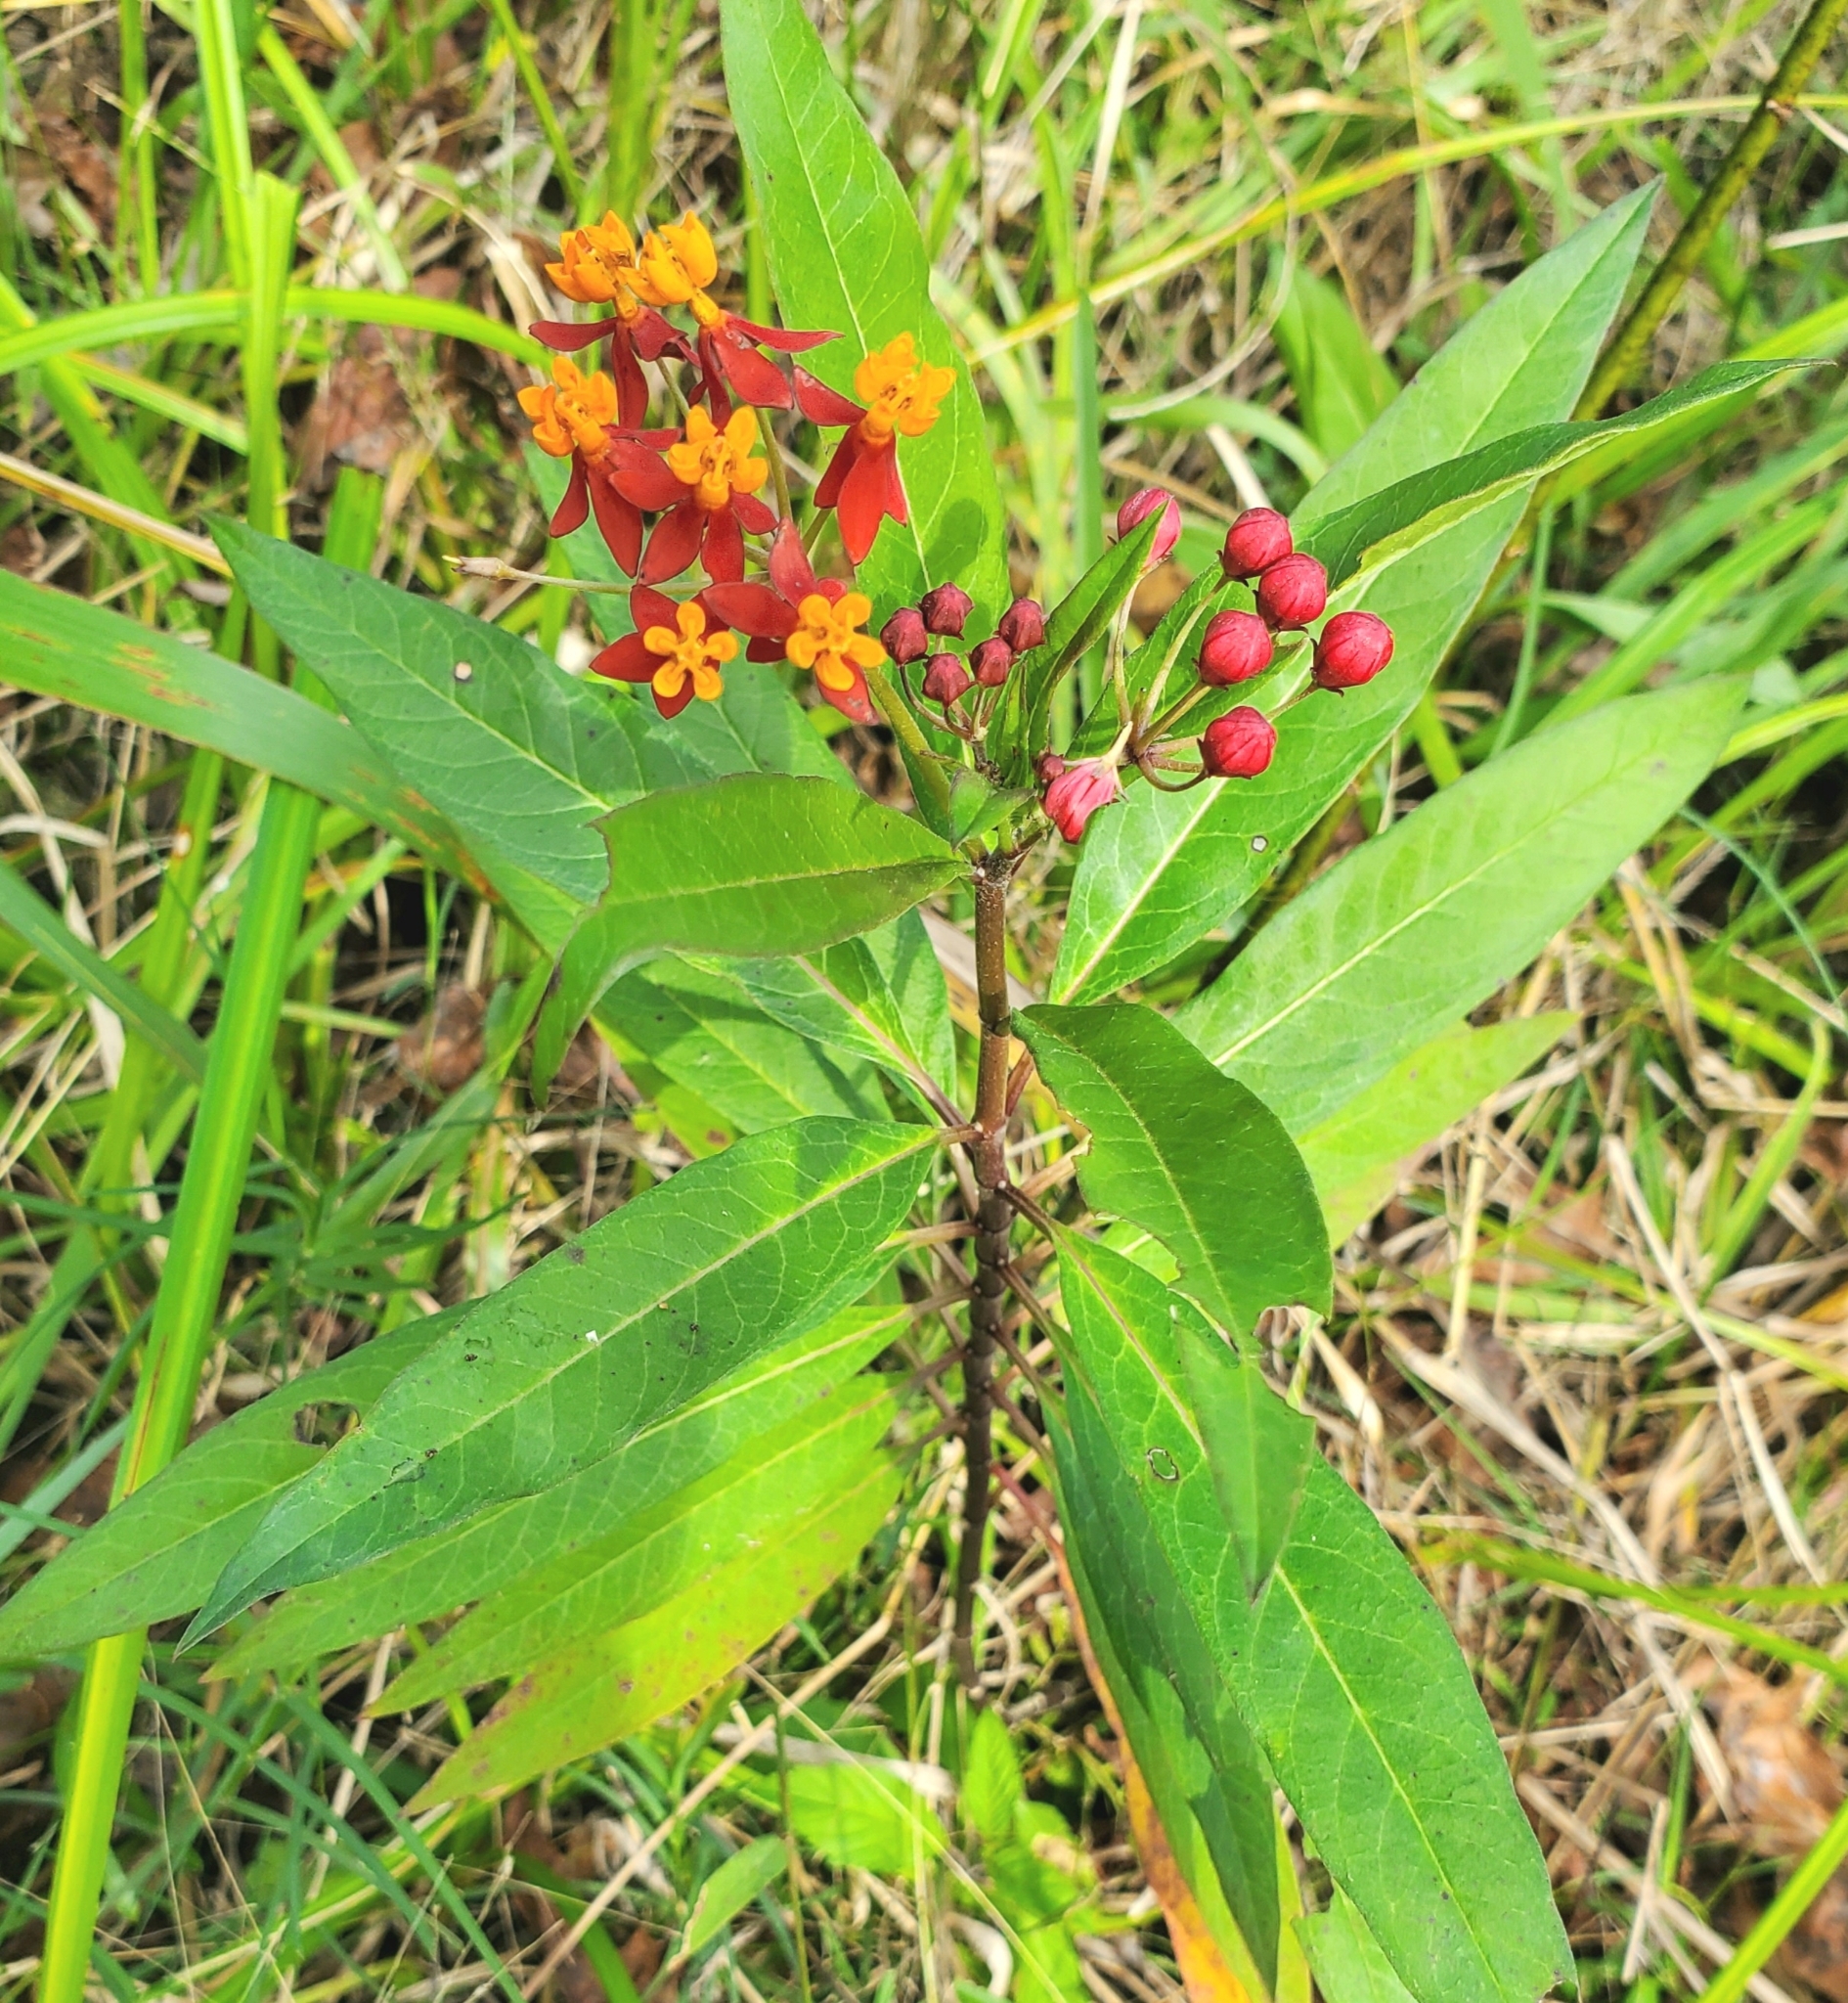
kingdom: Plantae
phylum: Tracheophyta
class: Magnoliopsida
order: Gentianales
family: Apocynaceae
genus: Asclepias
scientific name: Asclepias curassavica
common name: Bloodflower
